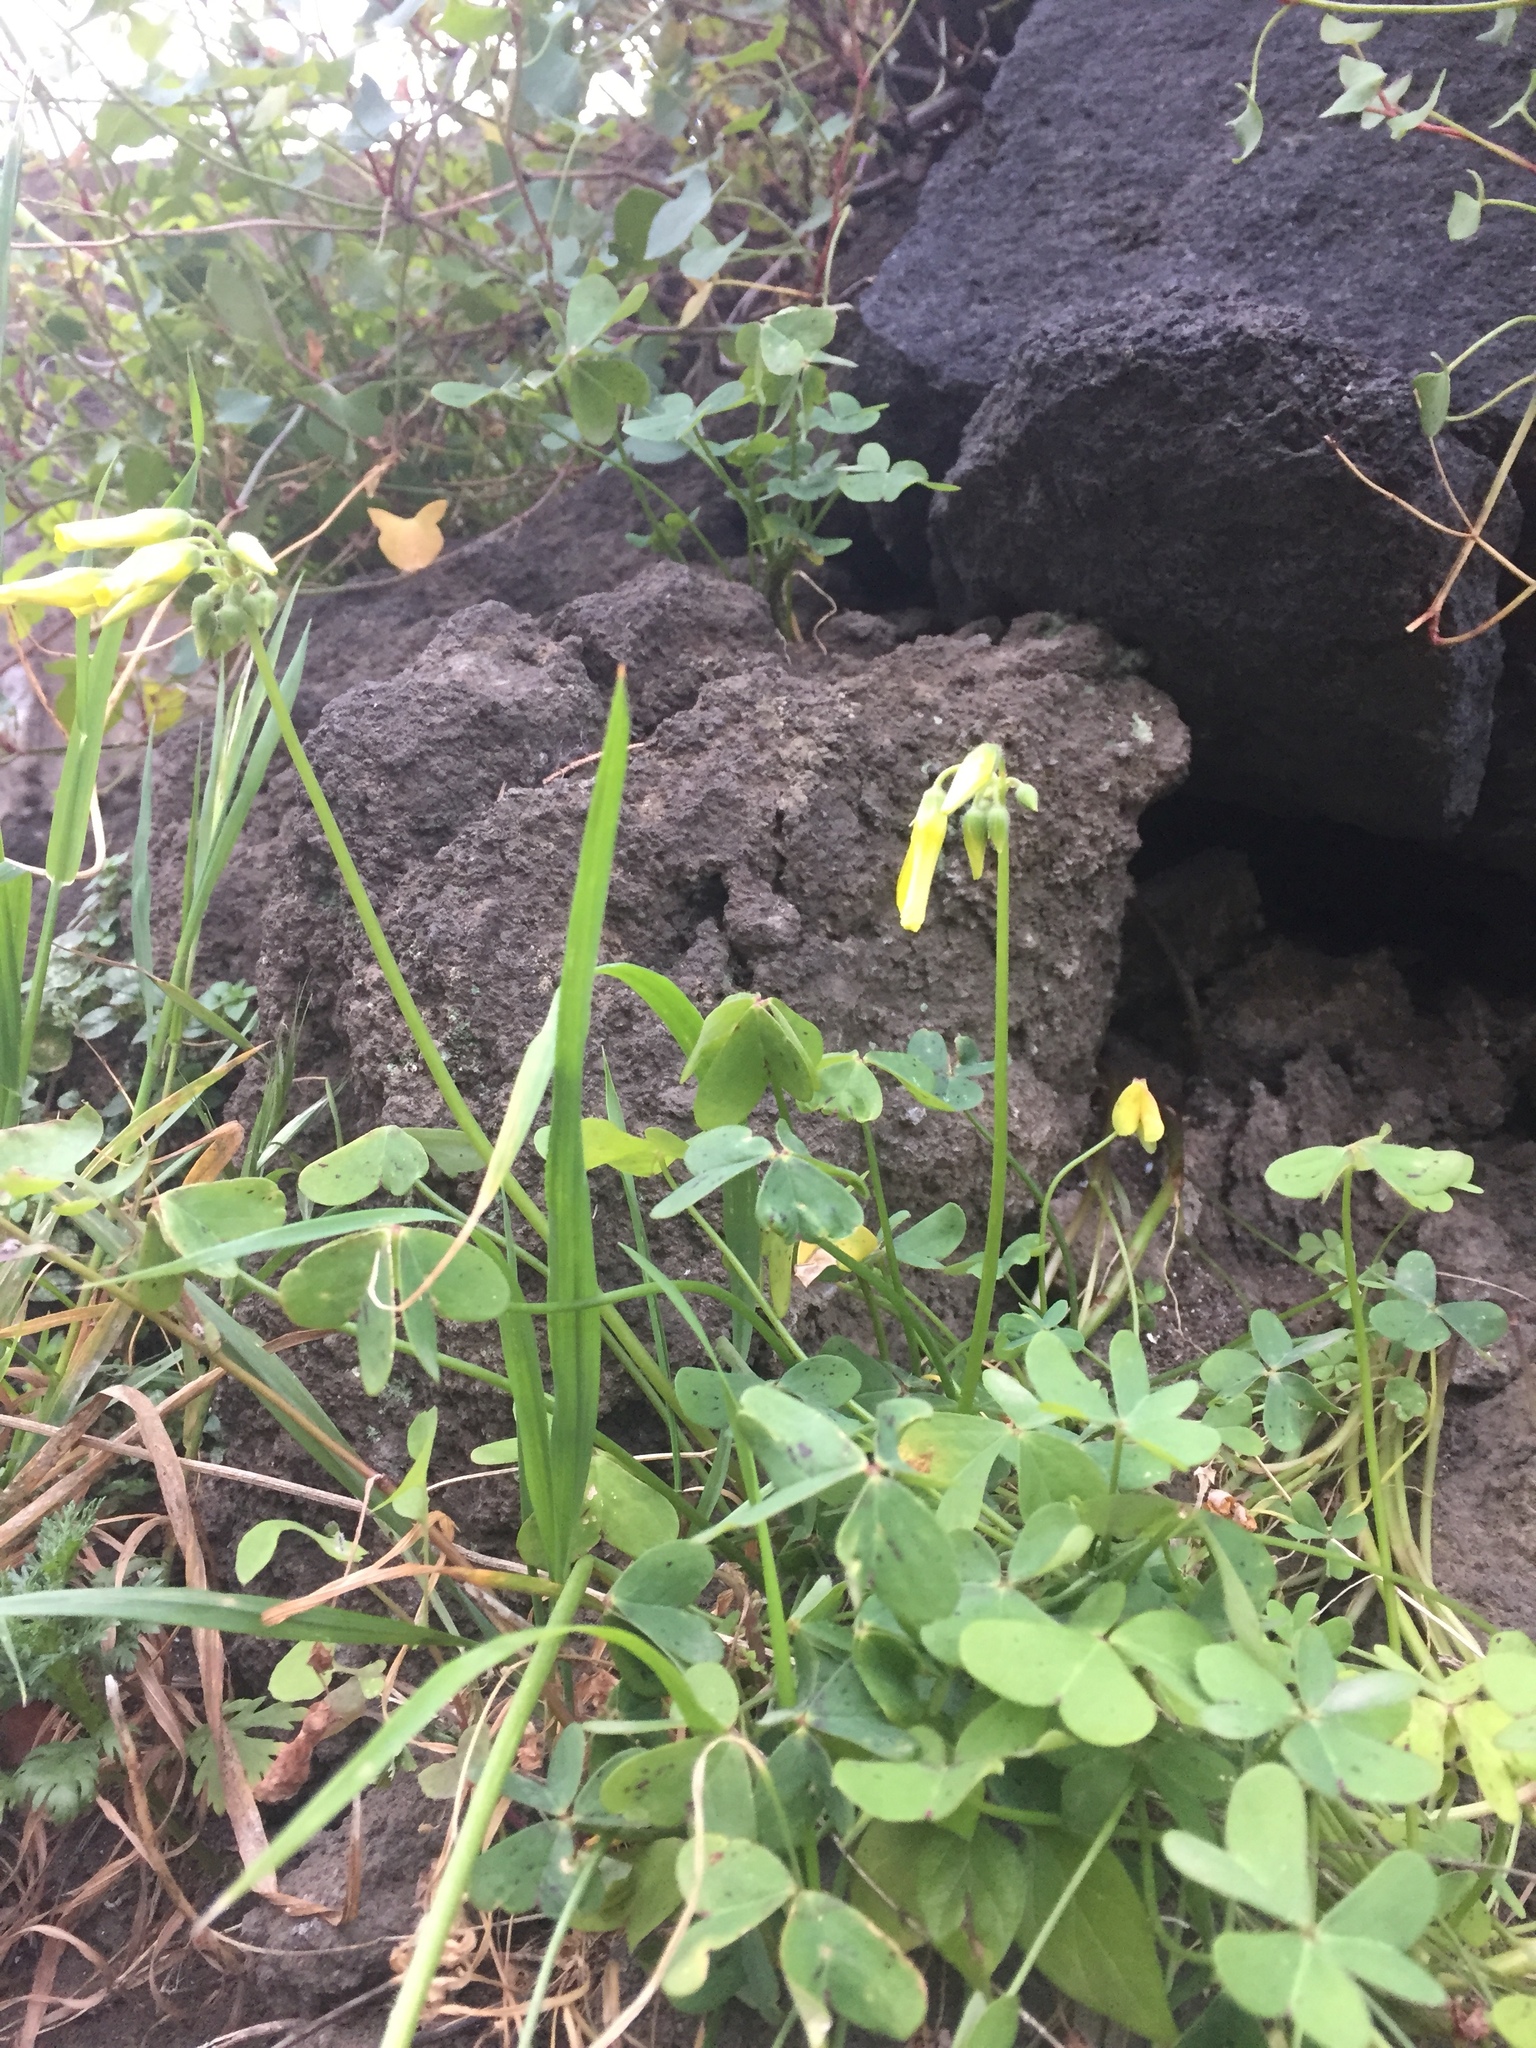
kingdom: Plantae
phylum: Tracheophyta
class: Magnoliopsida
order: Oxalidales
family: Oxalidaceae
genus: Oxalis
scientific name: Oxalis pes-caprae
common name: Bermuda-buttercup
